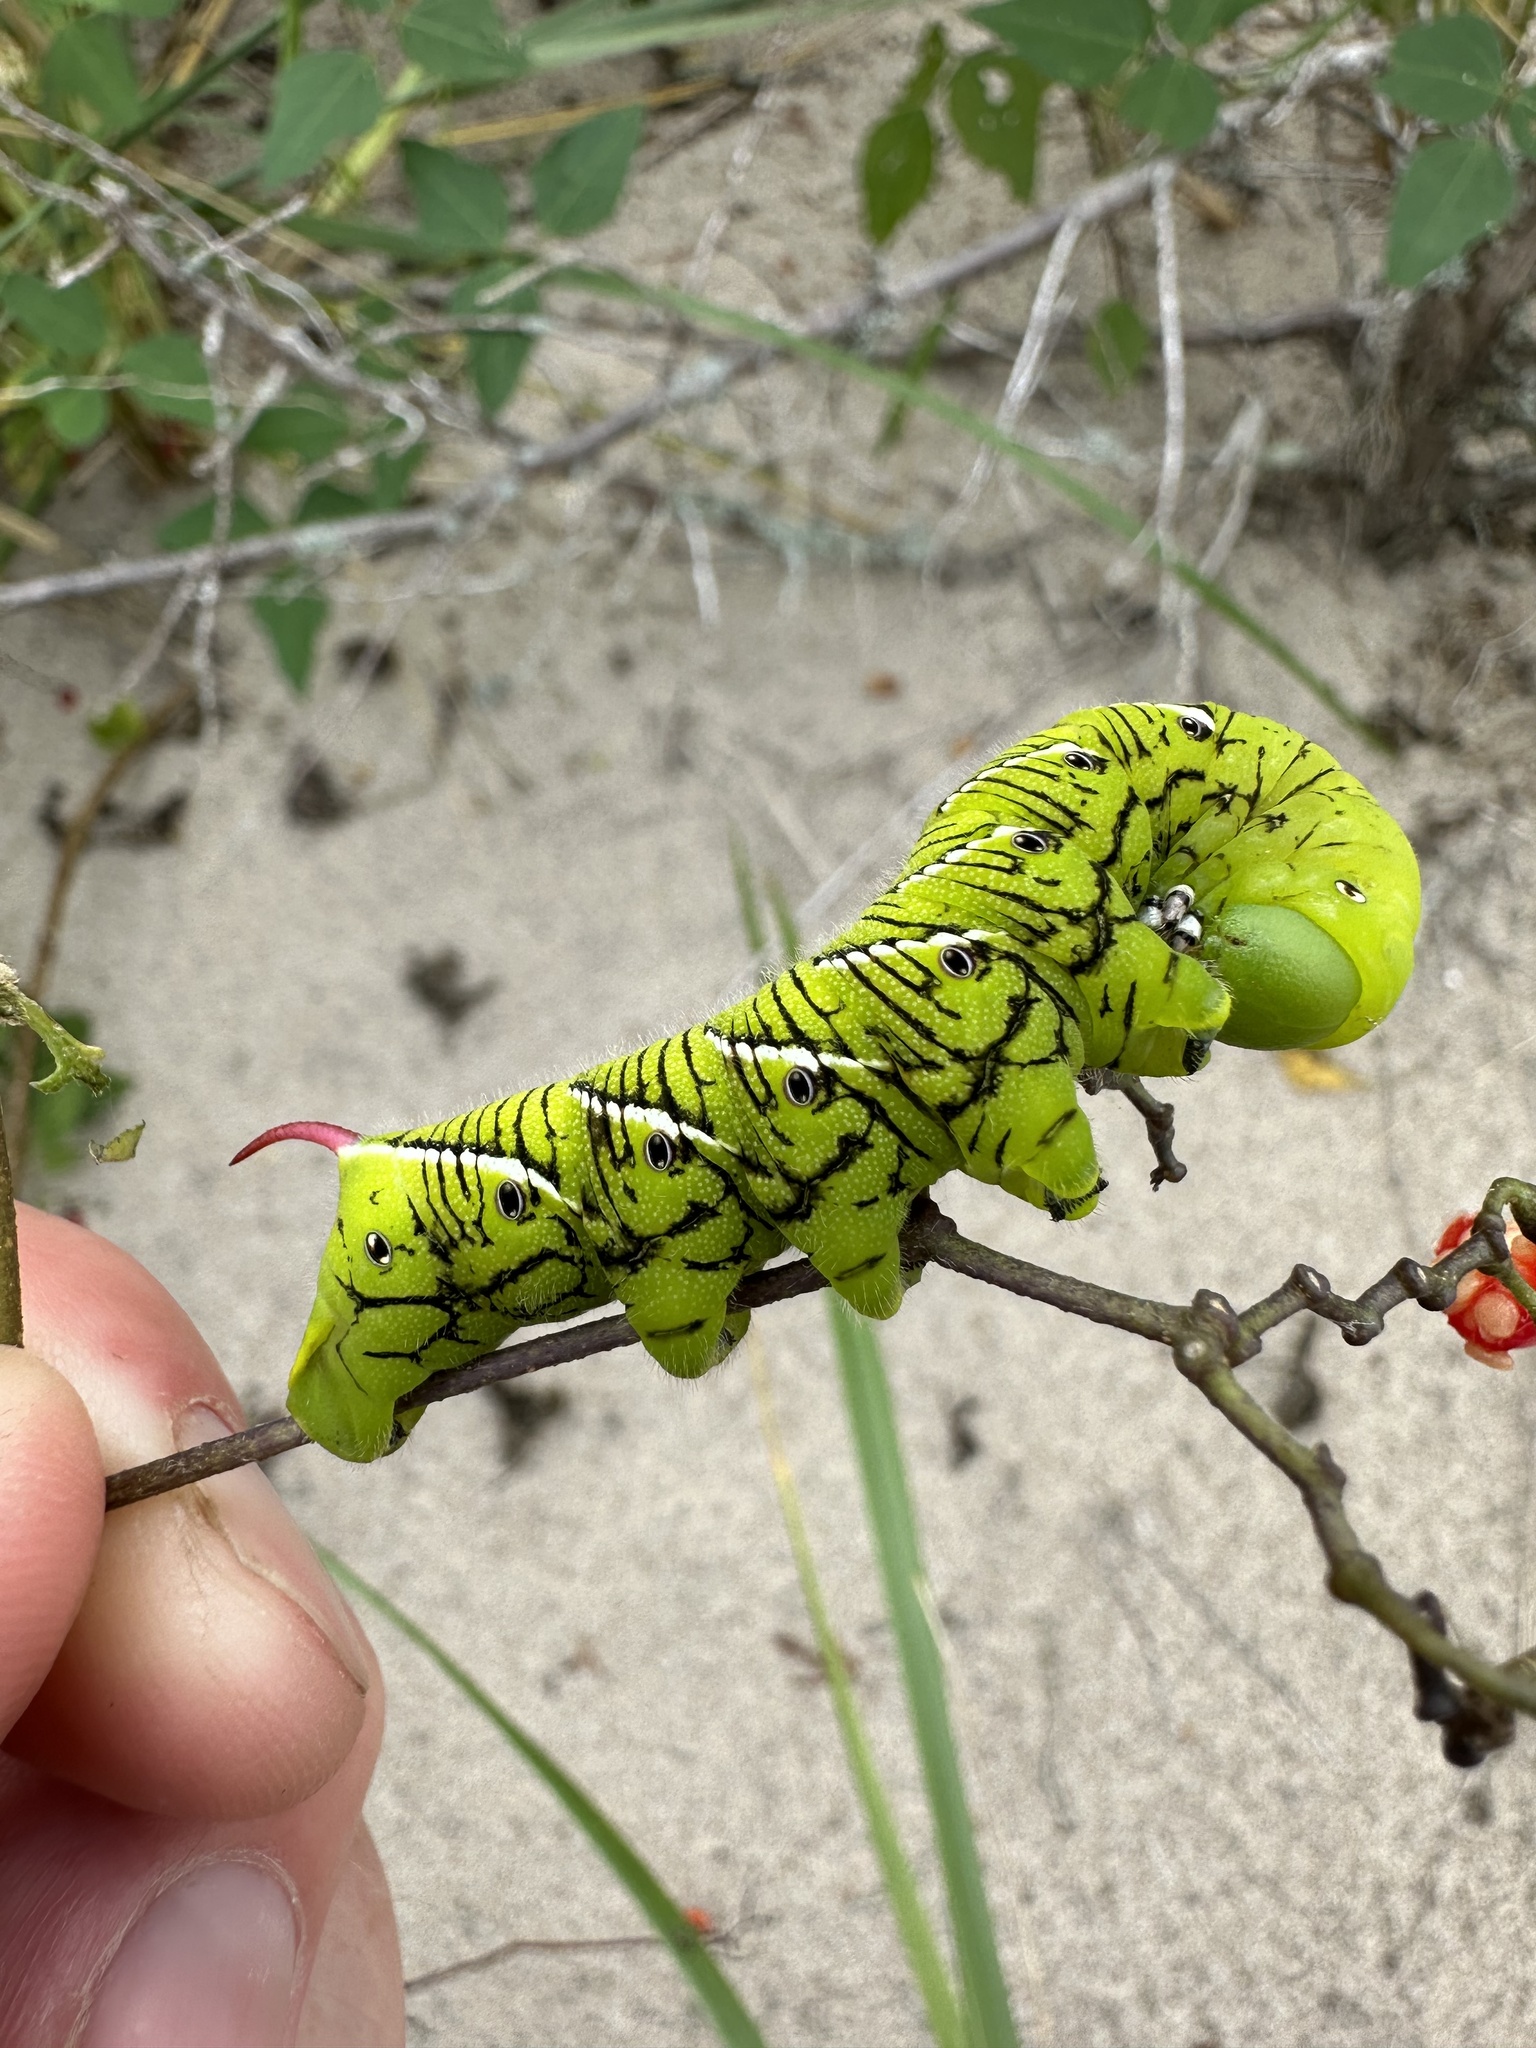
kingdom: Animalia
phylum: Arthropoda
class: Insecta
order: Lepidoptera
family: Sphingidae
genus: Manduca
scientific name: Manduca sexta
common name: Carolina sphinx
